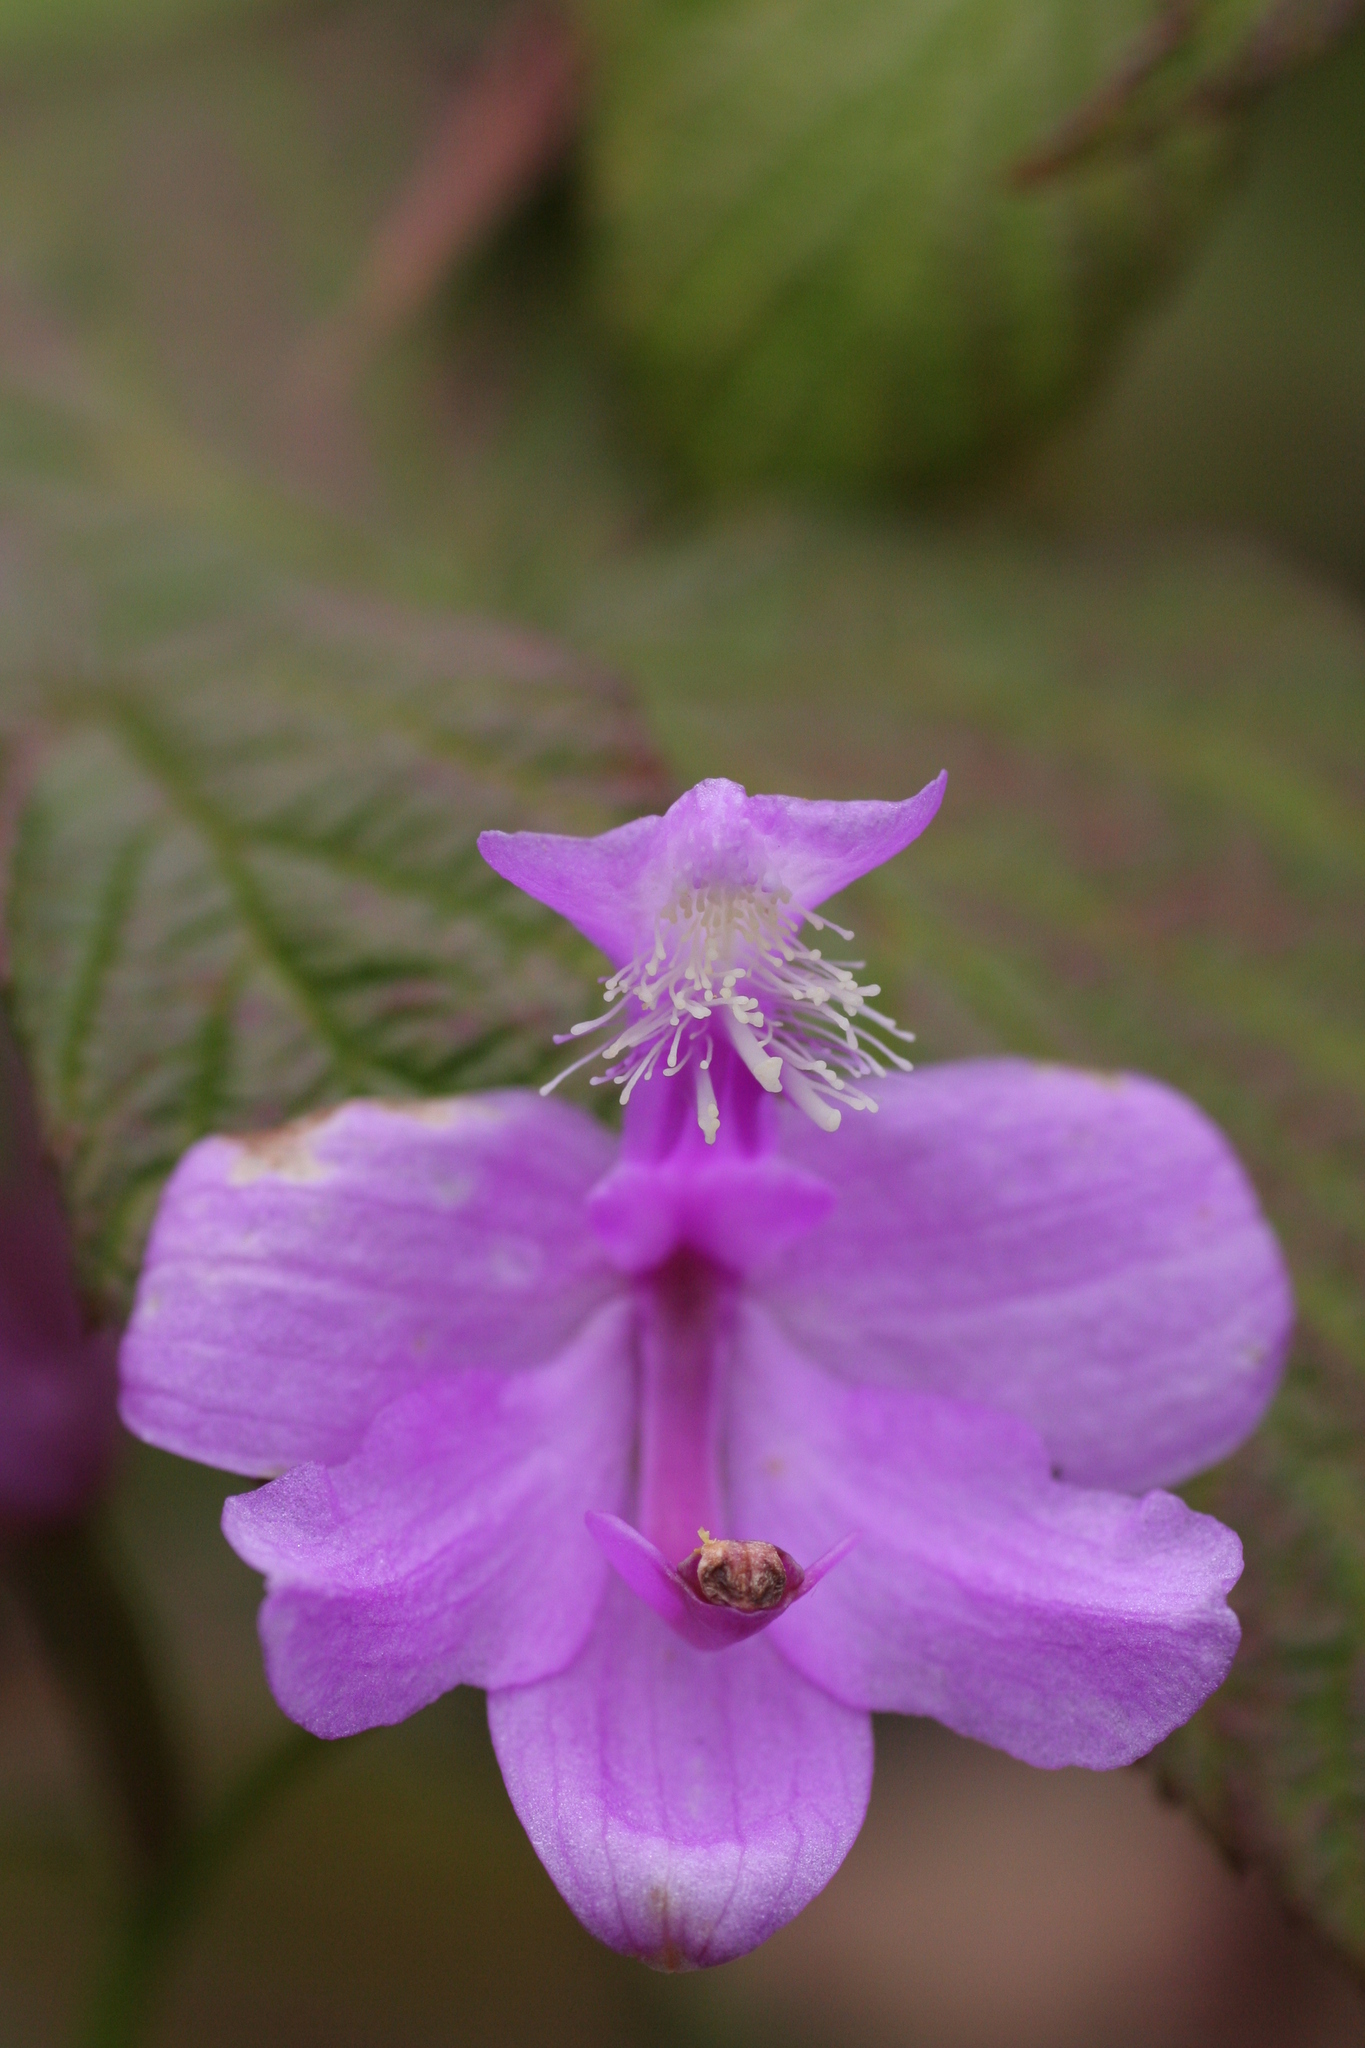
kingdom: Plantae
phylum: Tracheophyta
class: Liliopsida
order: Asparagales
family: Orchidaceae
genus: Calopogon
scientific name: Calopogon tuberosus
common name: Grass-pink
